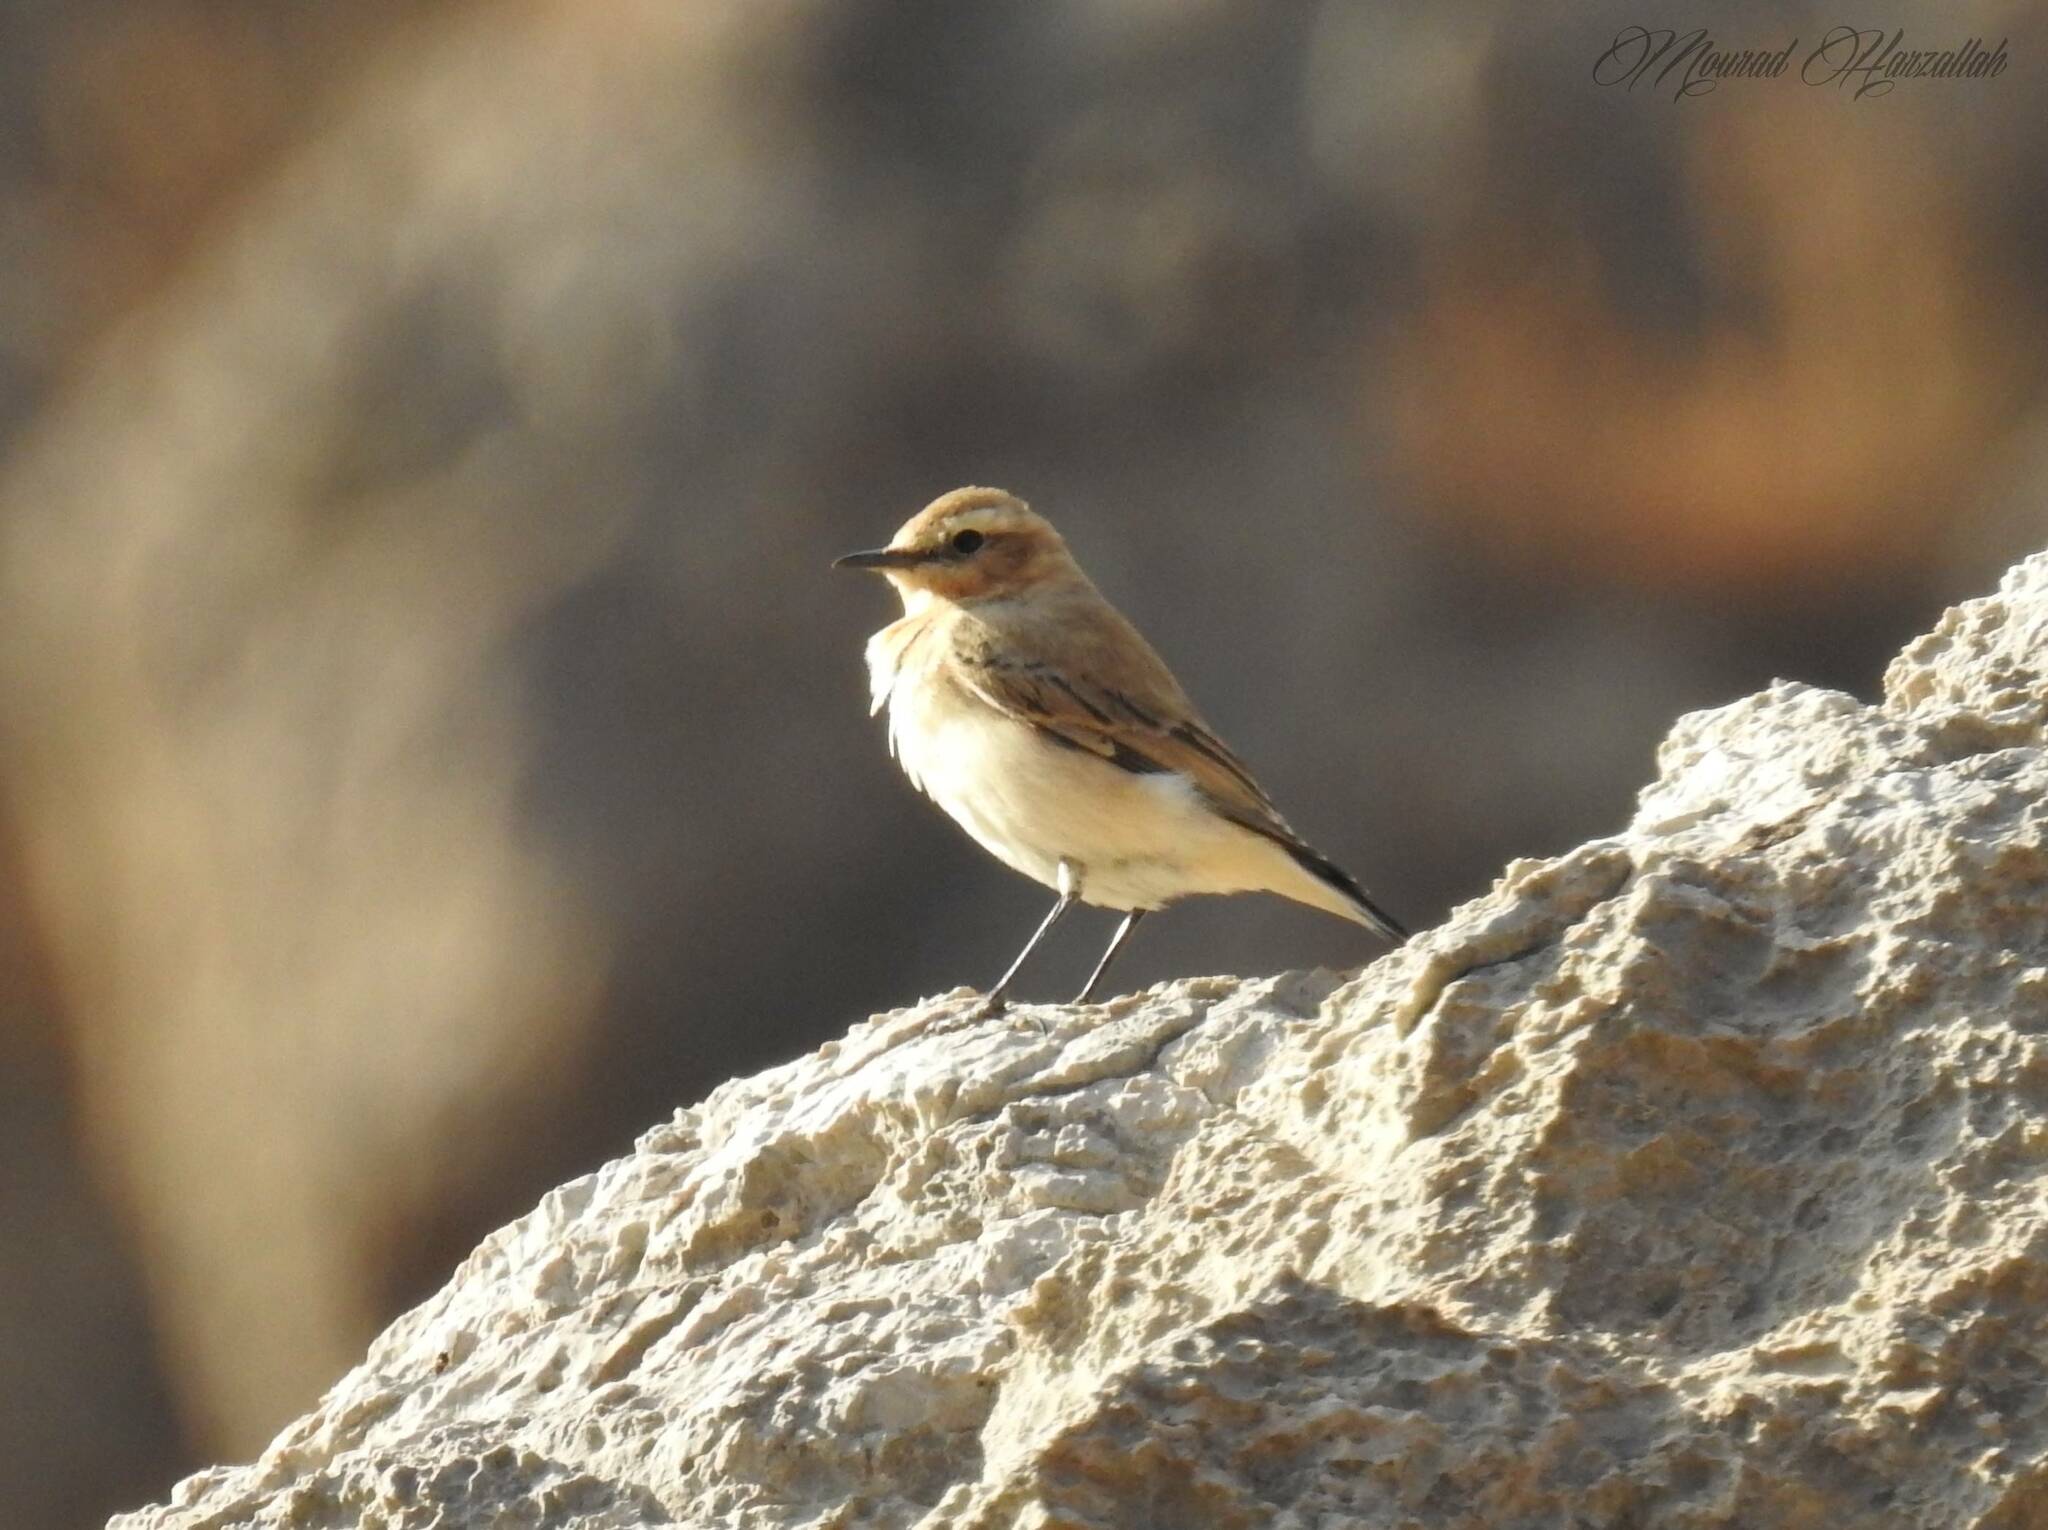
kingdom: Animalia
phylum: Chordata
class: Aves
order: Passeriformes
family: Muscicapidae
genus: Oenanthe
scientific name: Oenanthe oenanthe
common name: Northern wheatear
